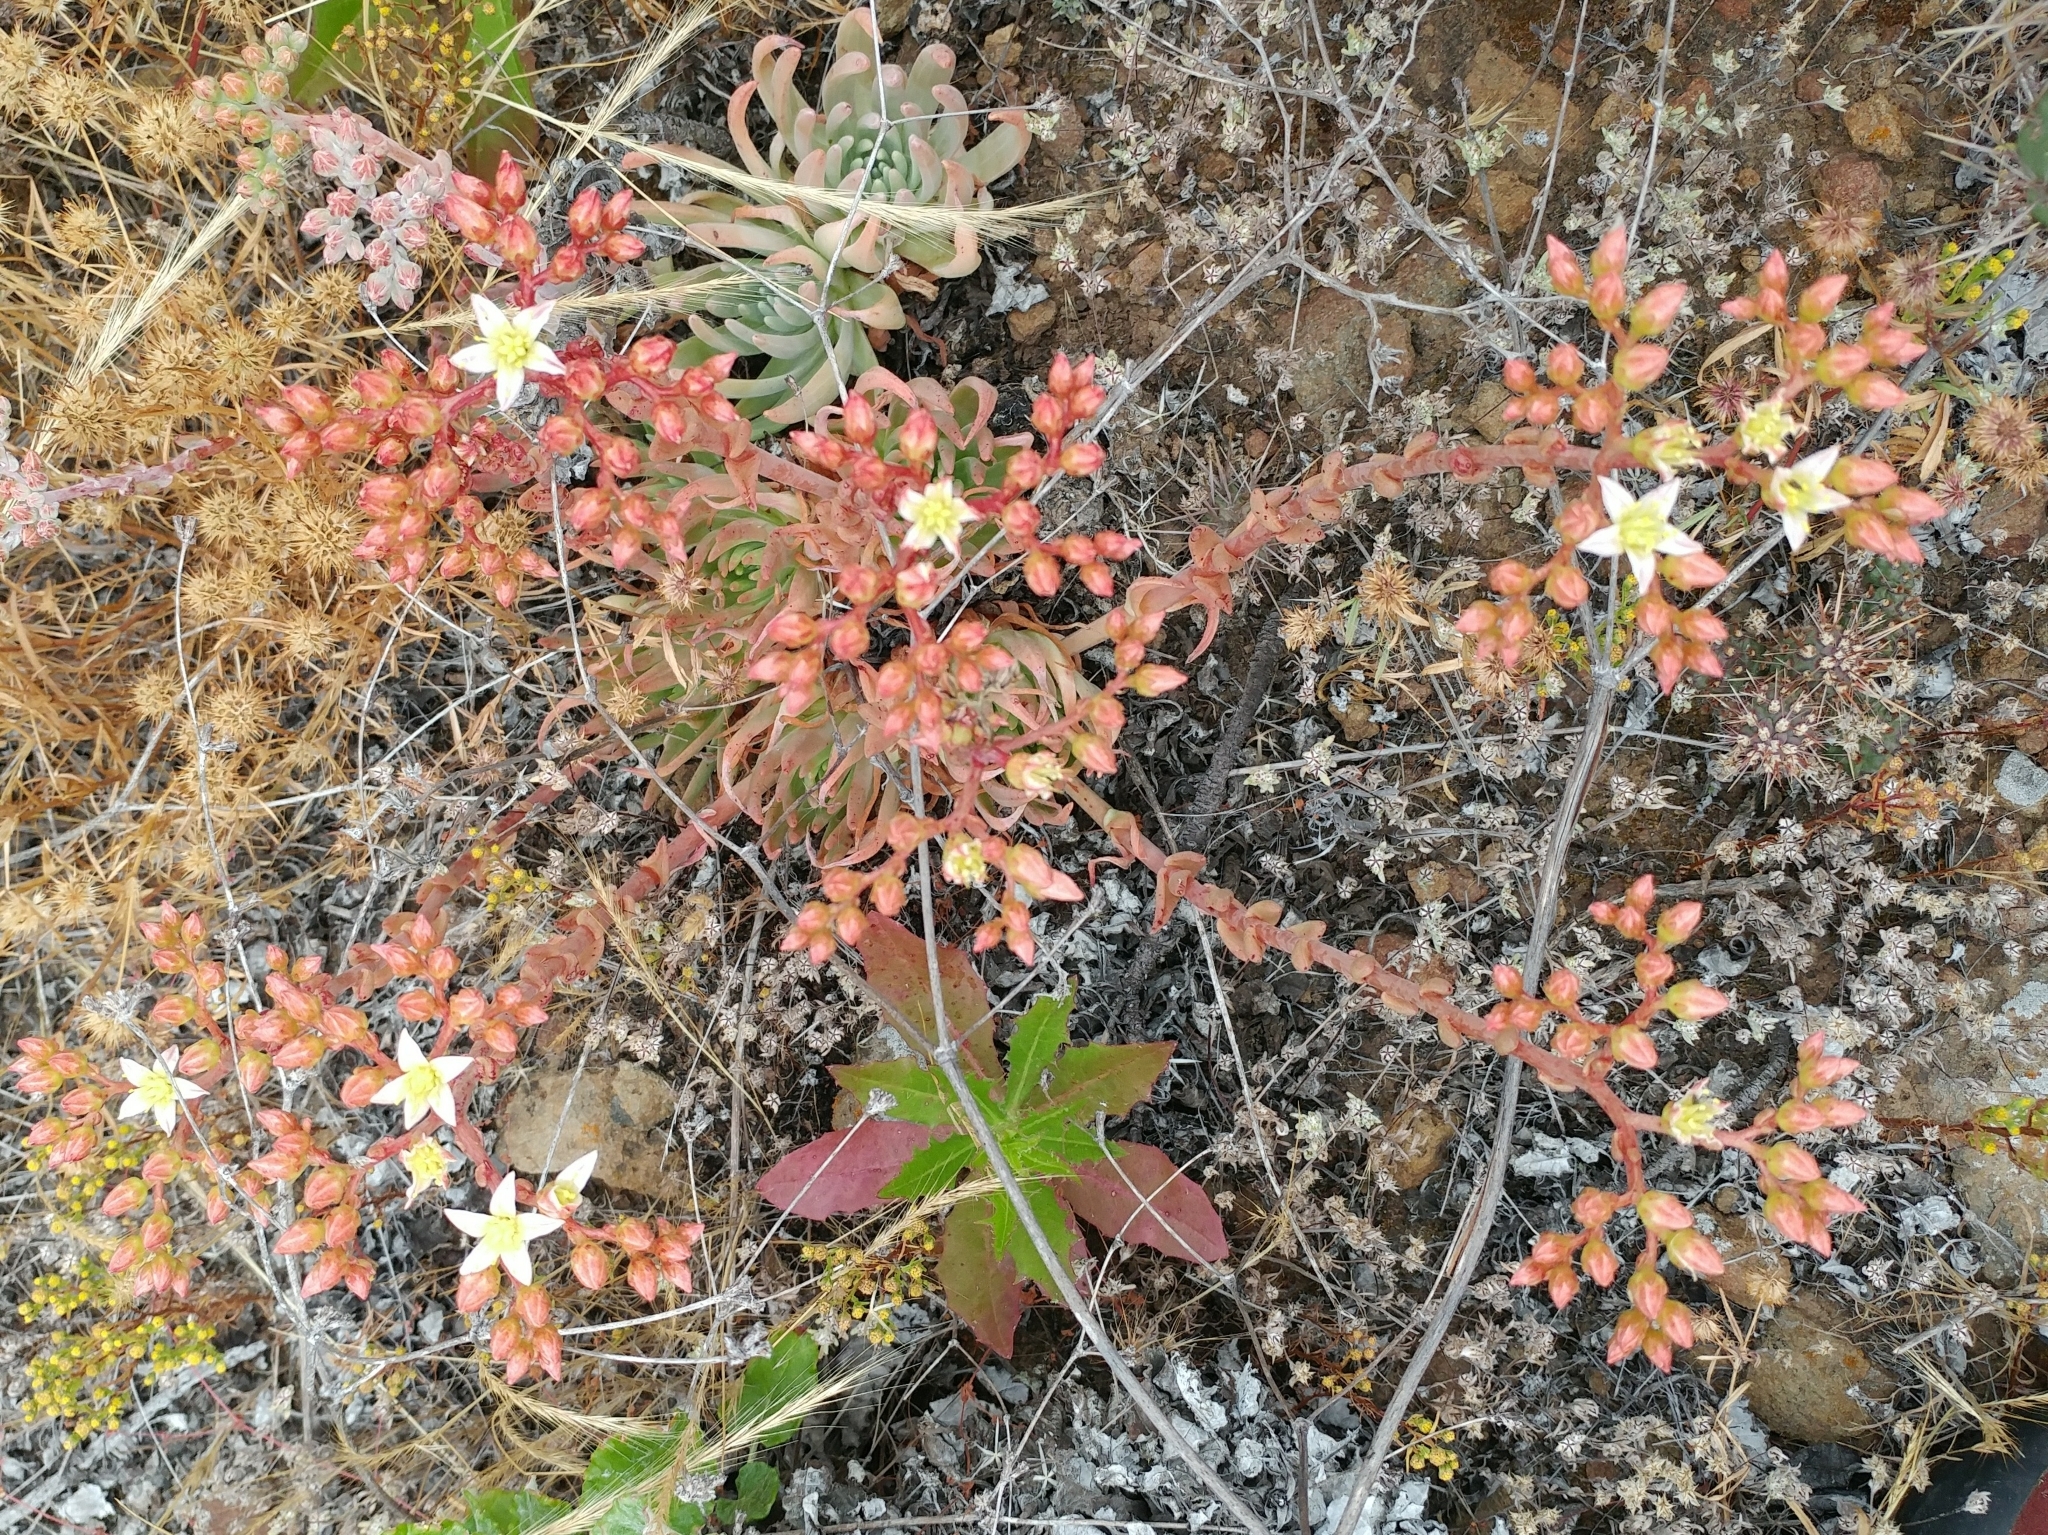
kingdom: Plantae
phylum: Tracheophyta
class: Magnoliopsida
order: Saxifragales
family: Crassulaceae
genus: Dudleya
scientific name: Dudleya virens
